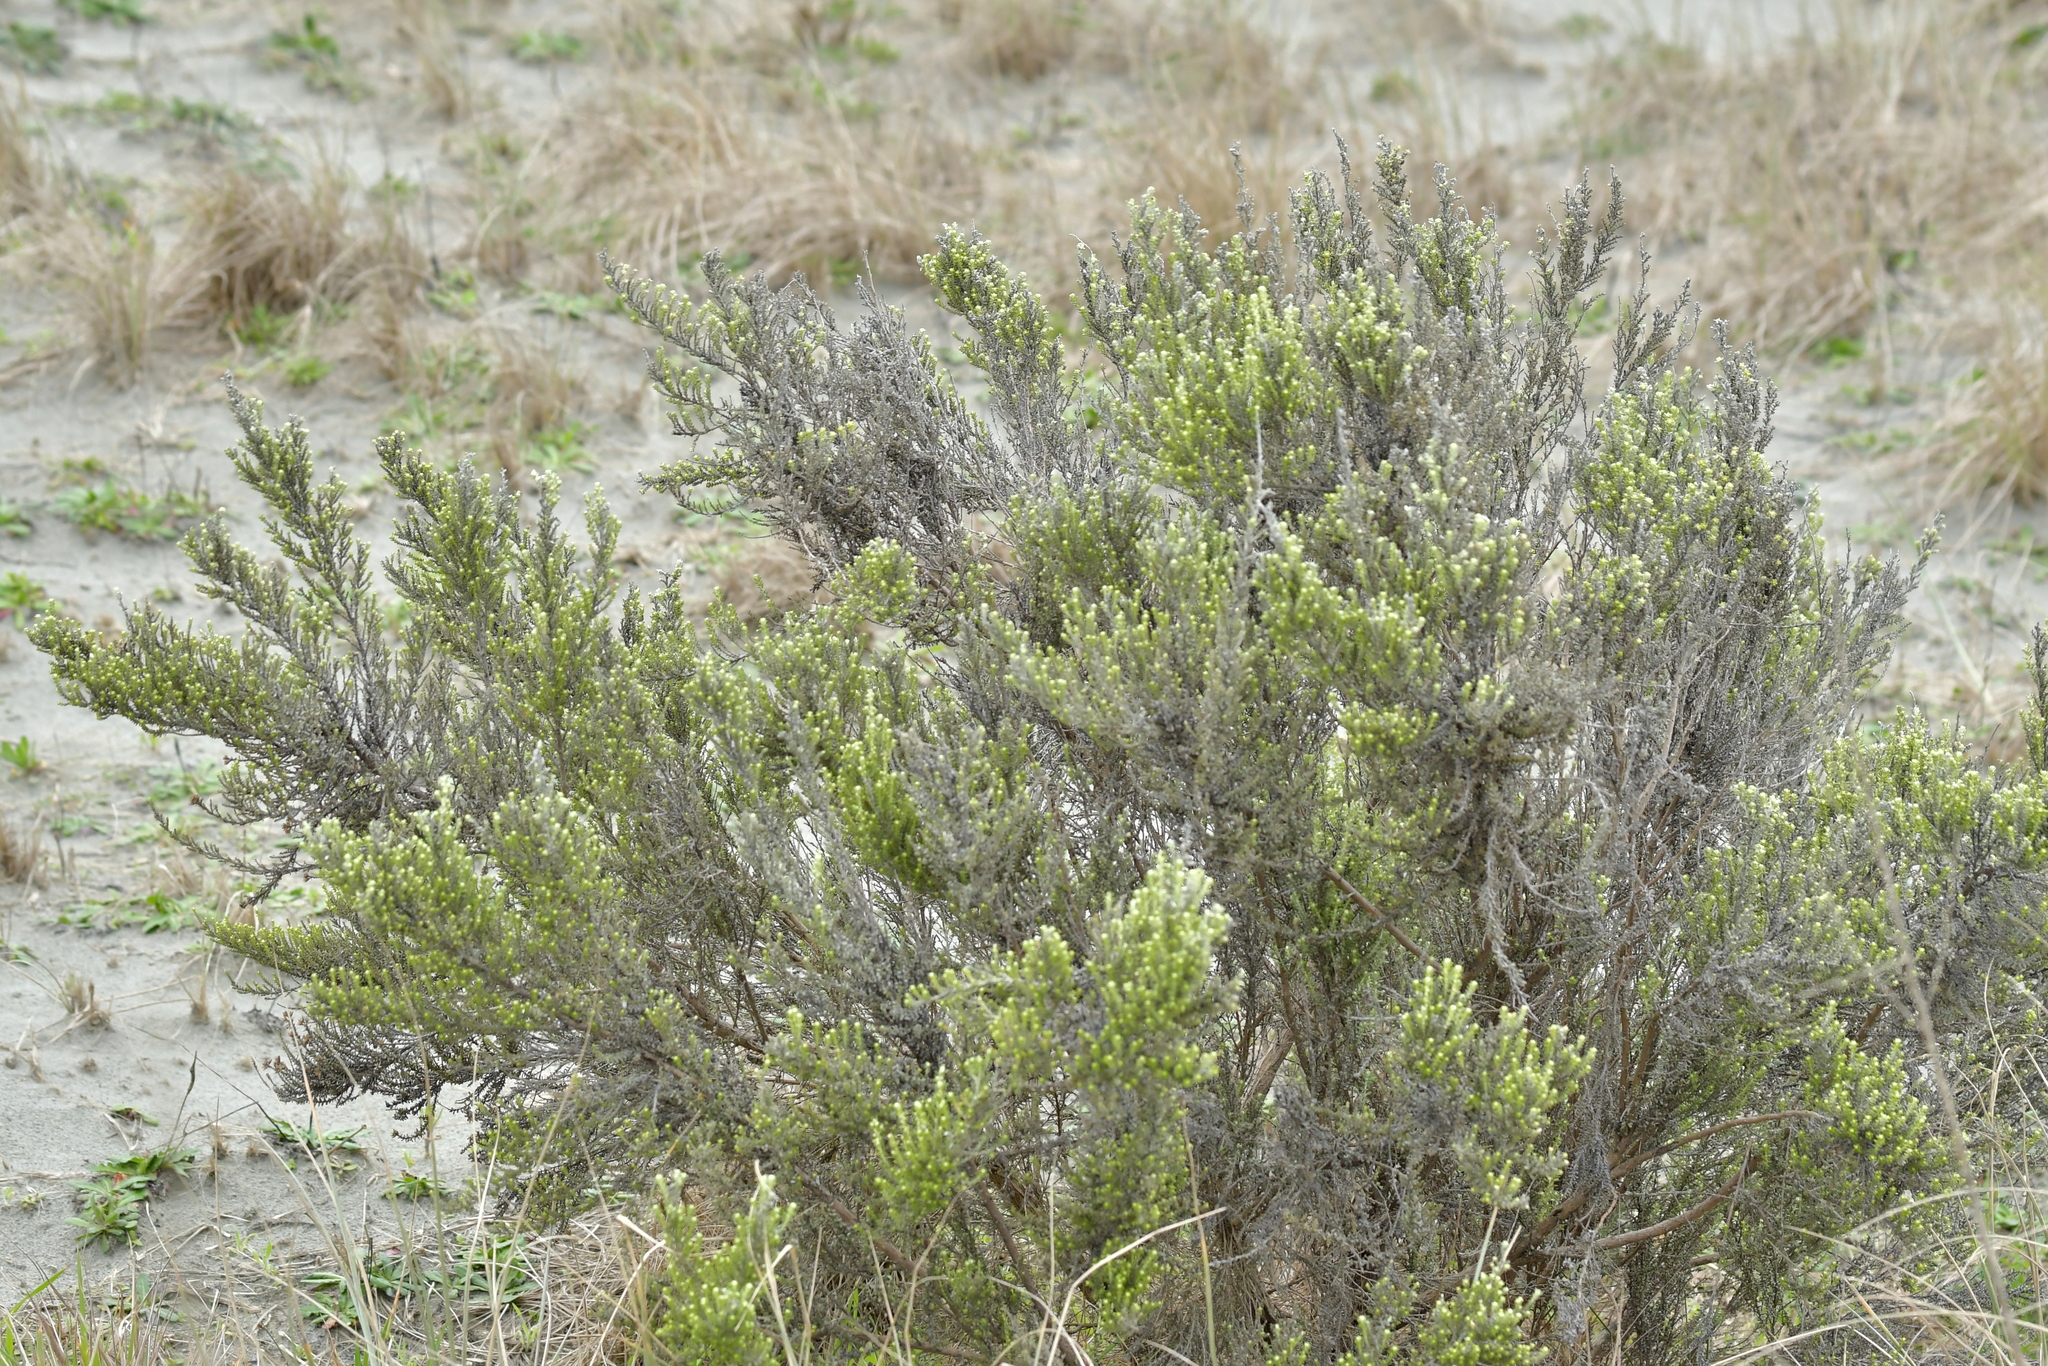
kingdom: Plantae
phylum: Tracheophyta
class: Magnoliopsida
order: Asterales
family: Asteraceae
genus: Ozothamnus
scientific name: Ozothamnus leptophyllus
